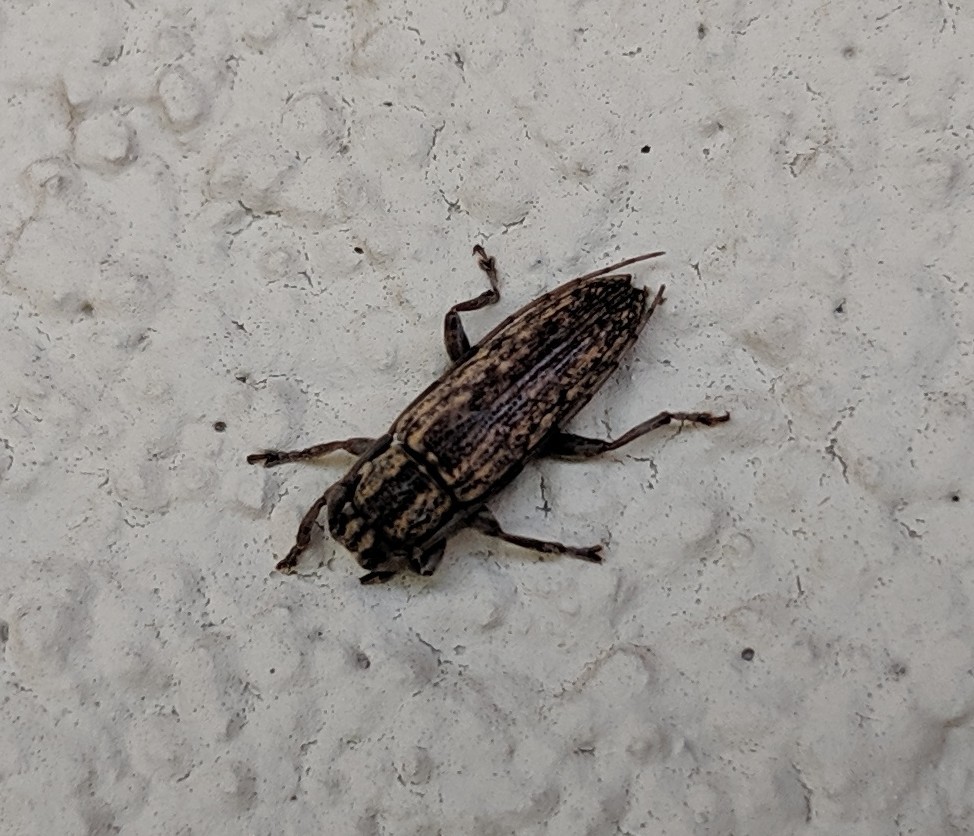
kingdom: Animalia
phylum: Arthropoda
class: Insecta
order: Coleoptera
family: Cerambycidae
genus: Mycerinopsis
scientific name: Mycerinopsis alternans
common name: Long horned beetle
